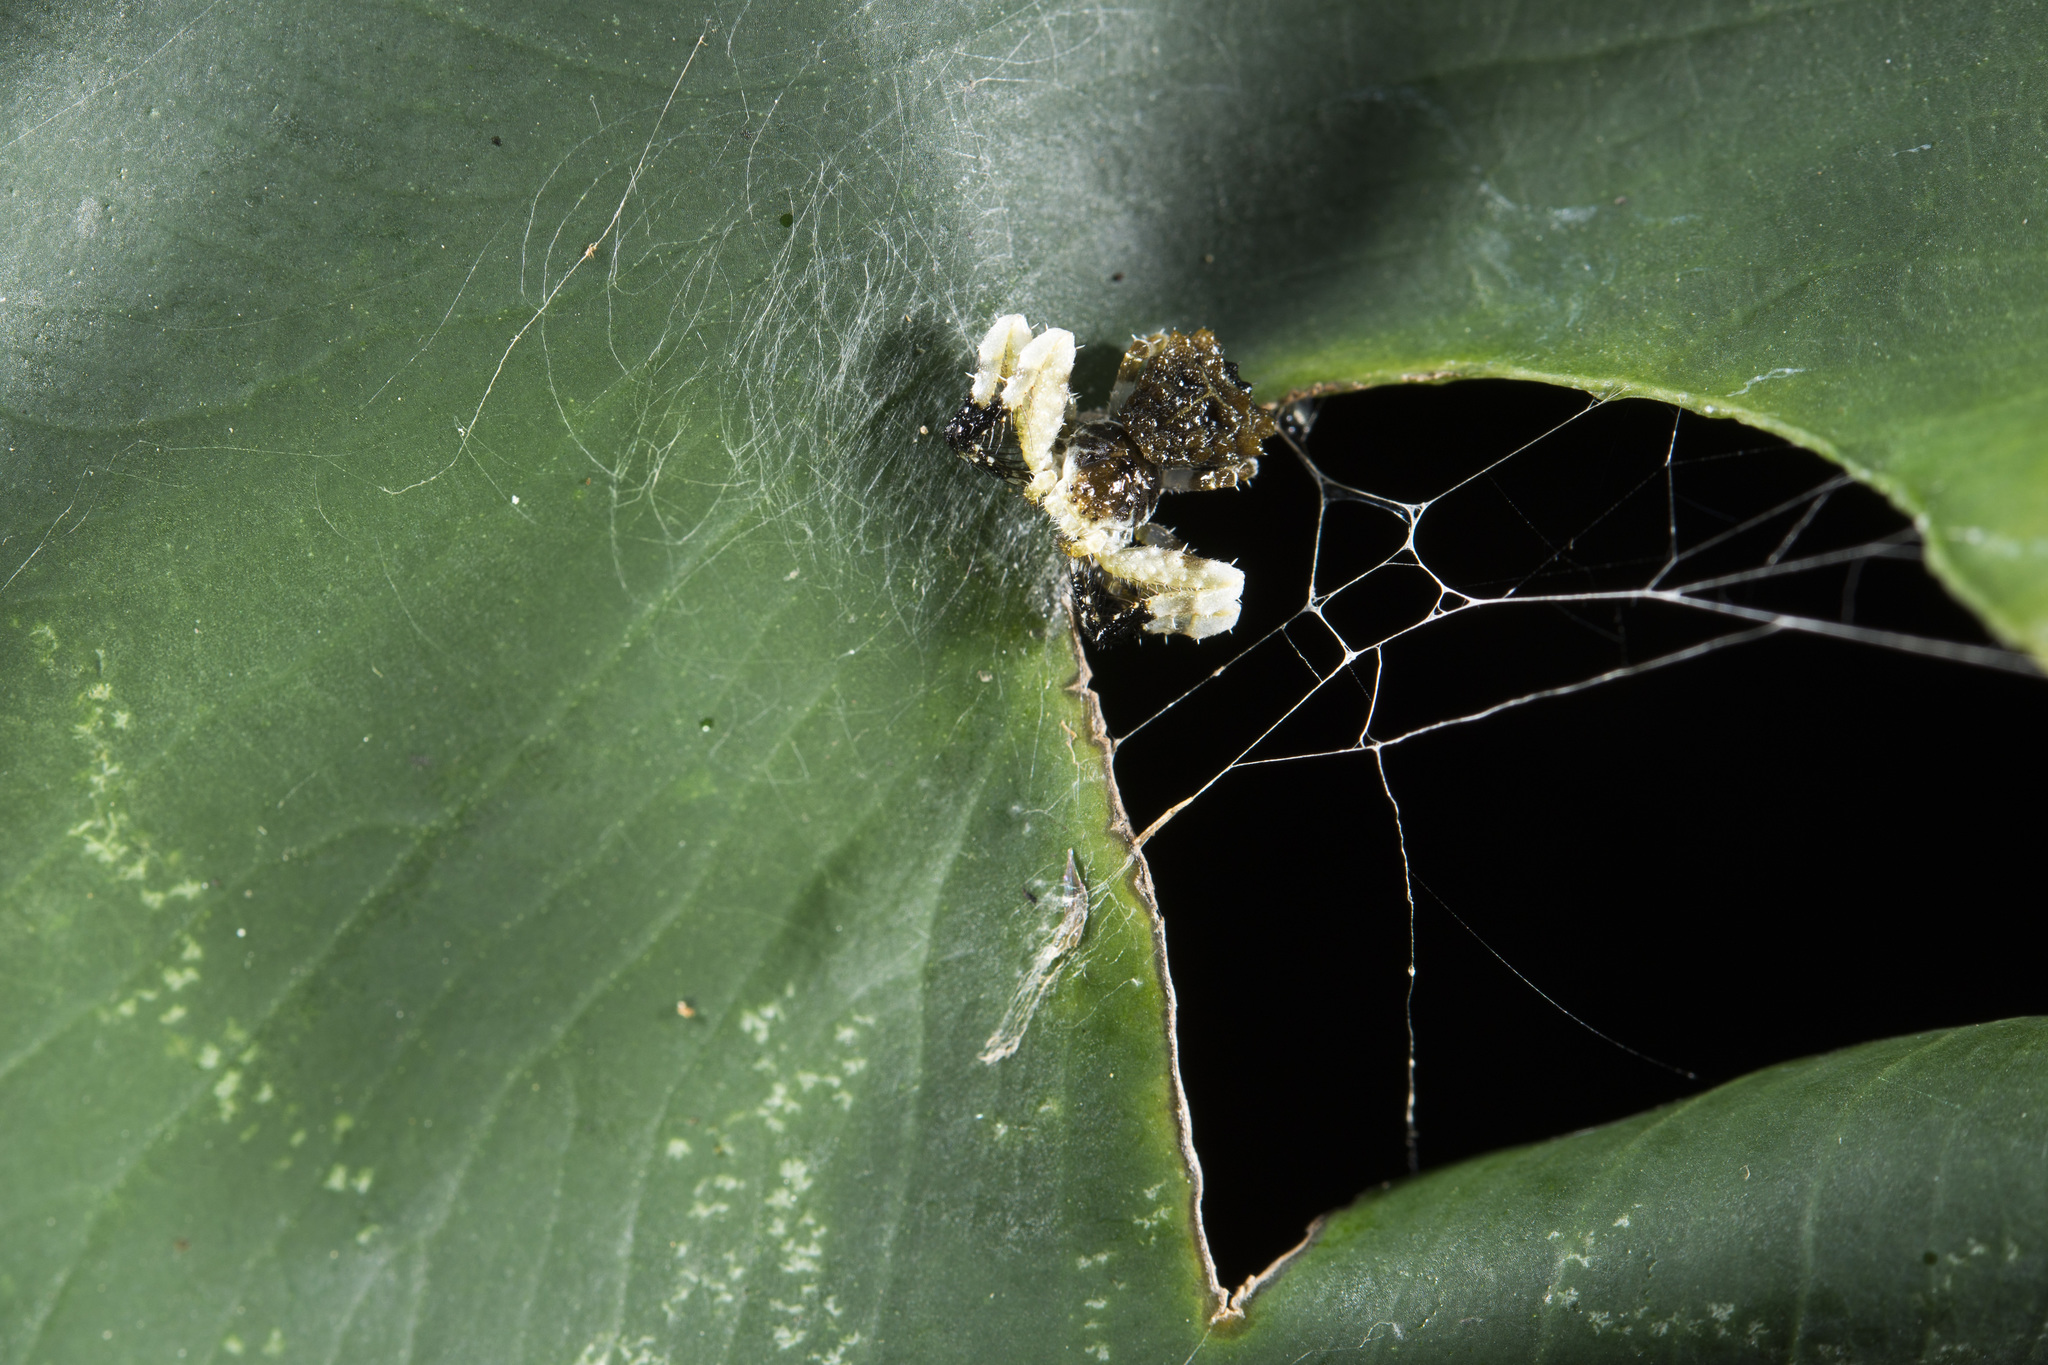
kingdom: Animalia
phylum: Arthropoda
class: Arachnida
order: Araneae
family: Thomisidae
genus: Phrynarachne
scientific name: Phrynarachne ceylonica
